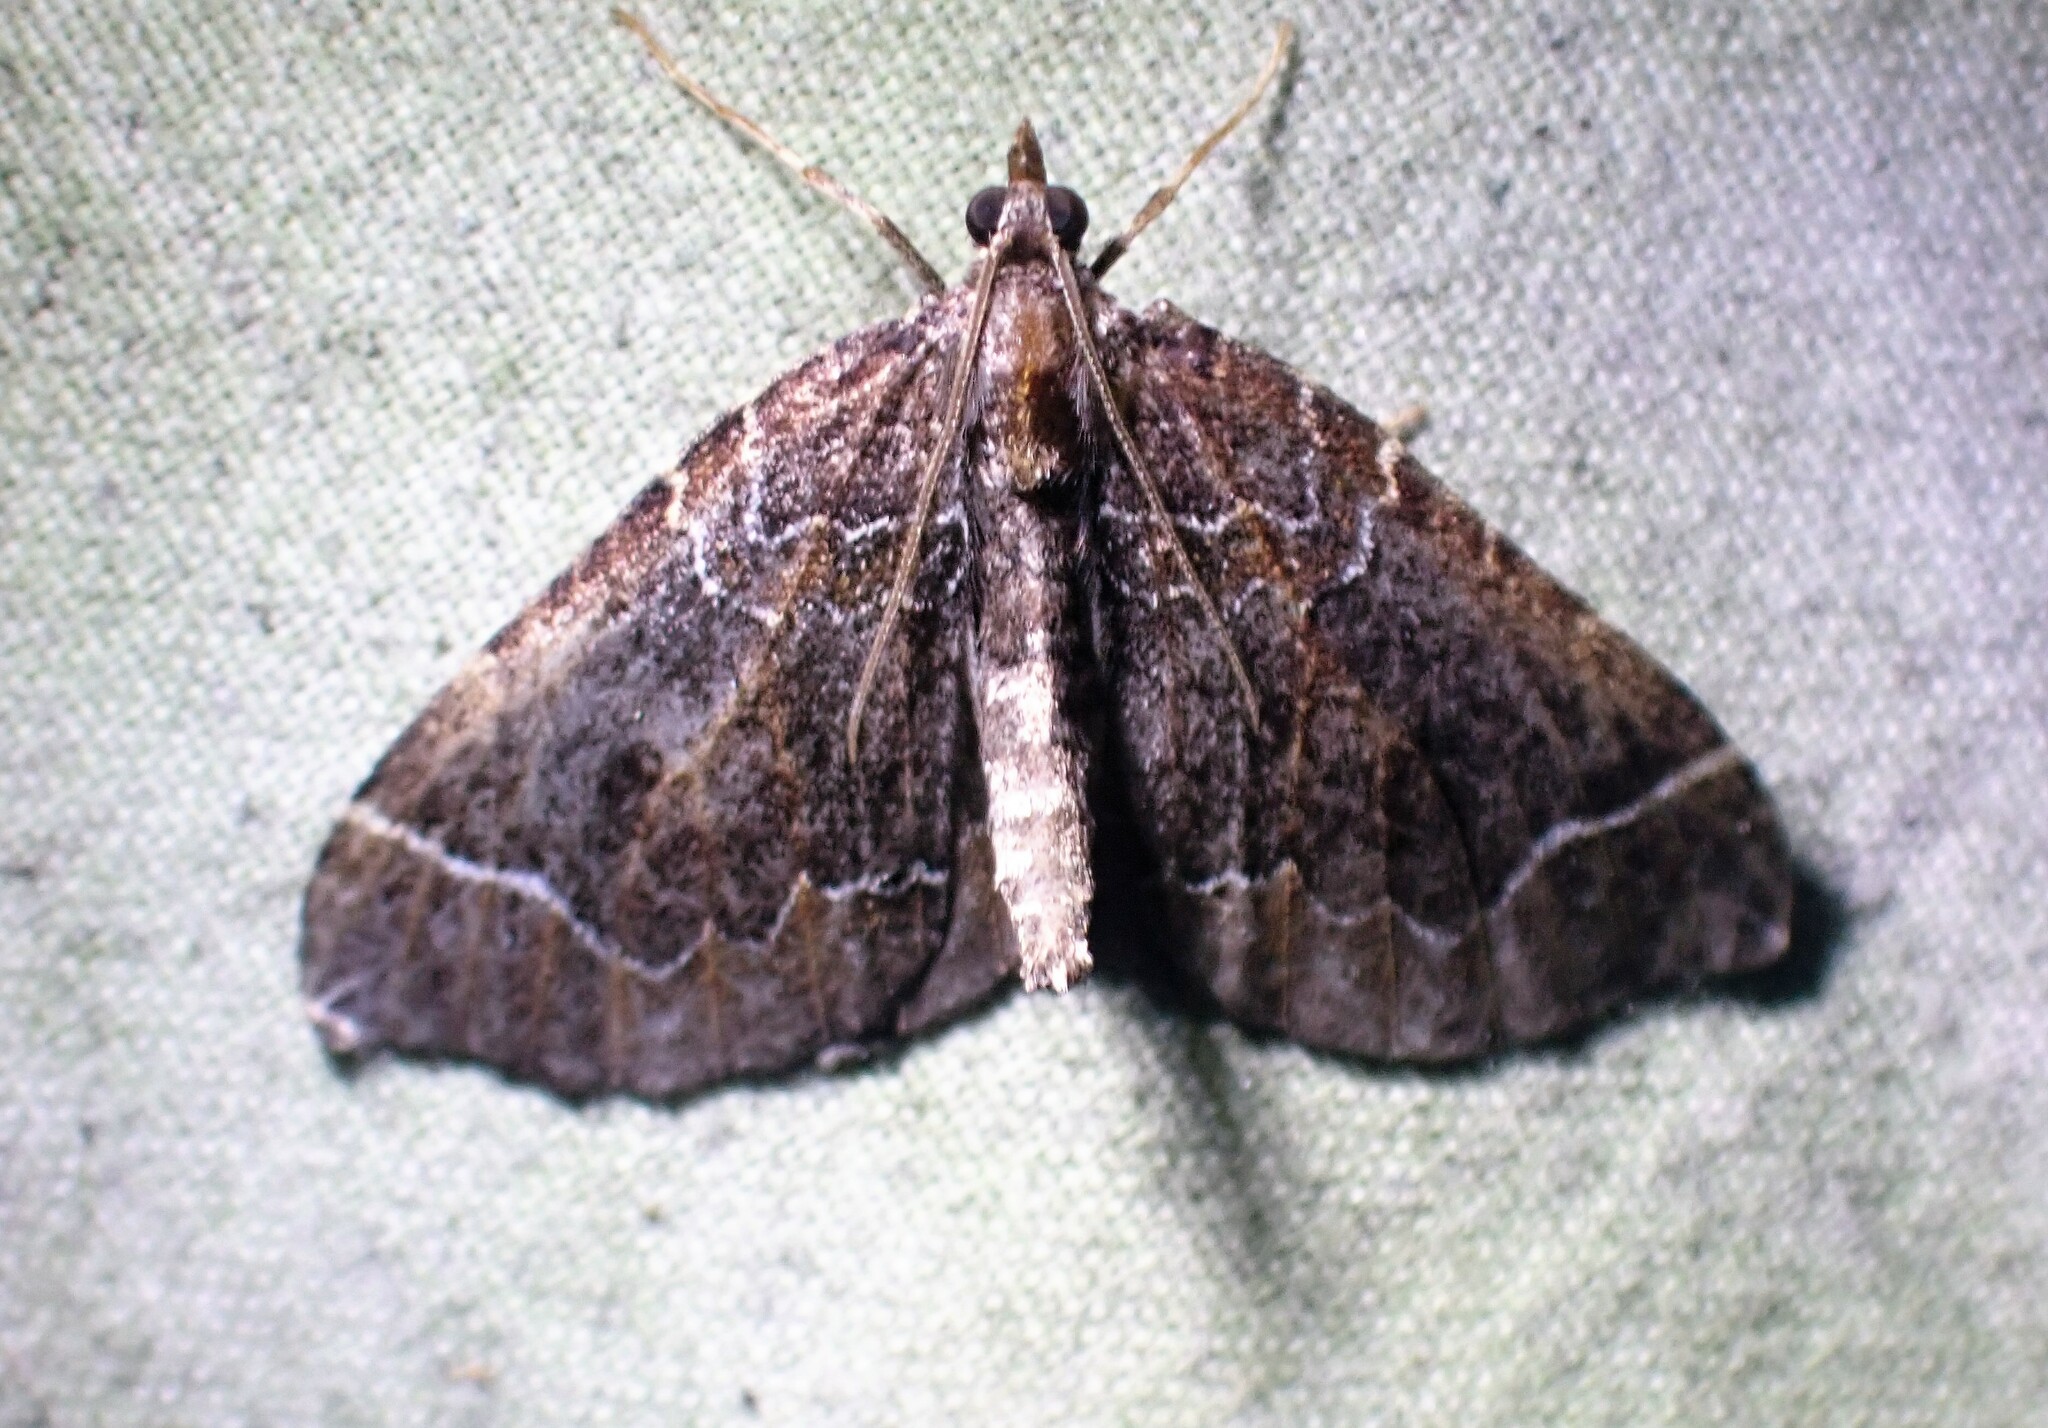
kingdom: Animalia
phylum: Arthropoda
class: Insecta
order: Lepidoptera
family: Geometridae
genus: Eulithis
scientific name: Eulithis flavibrunneata
